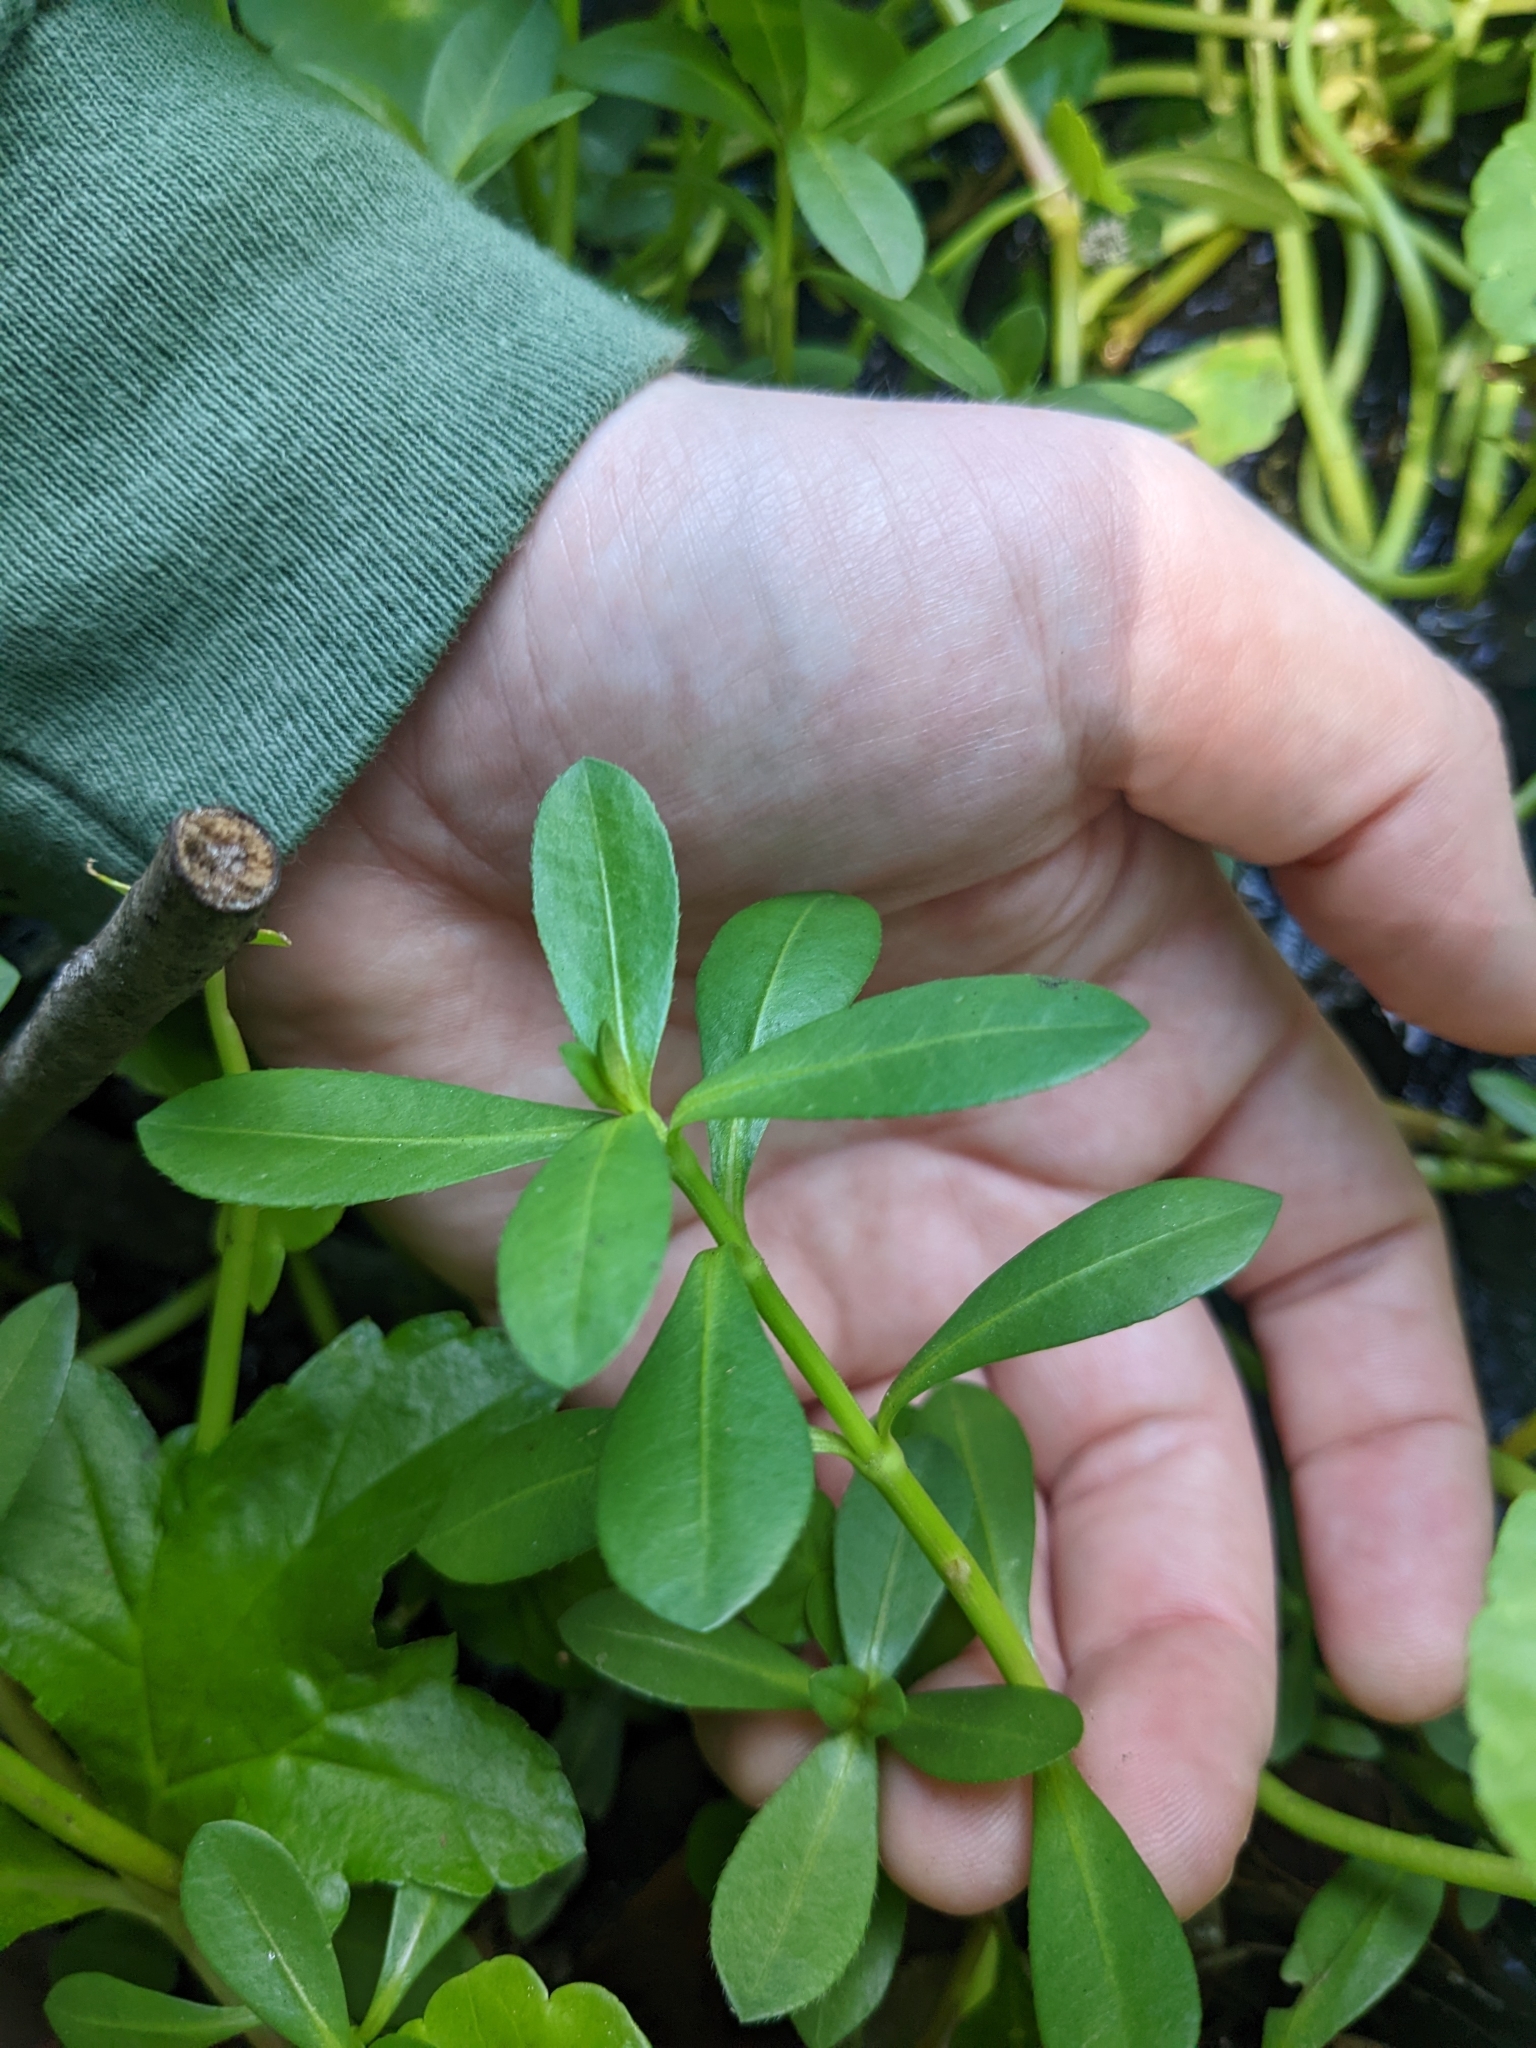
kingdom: Plantae
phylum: Tracheophyta
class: Magnoliopsida
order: Caryophyllales
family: Amaranthaceae
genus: Alternanthera
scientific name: Alternanthera philoxeroides
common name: Alligatorweed
